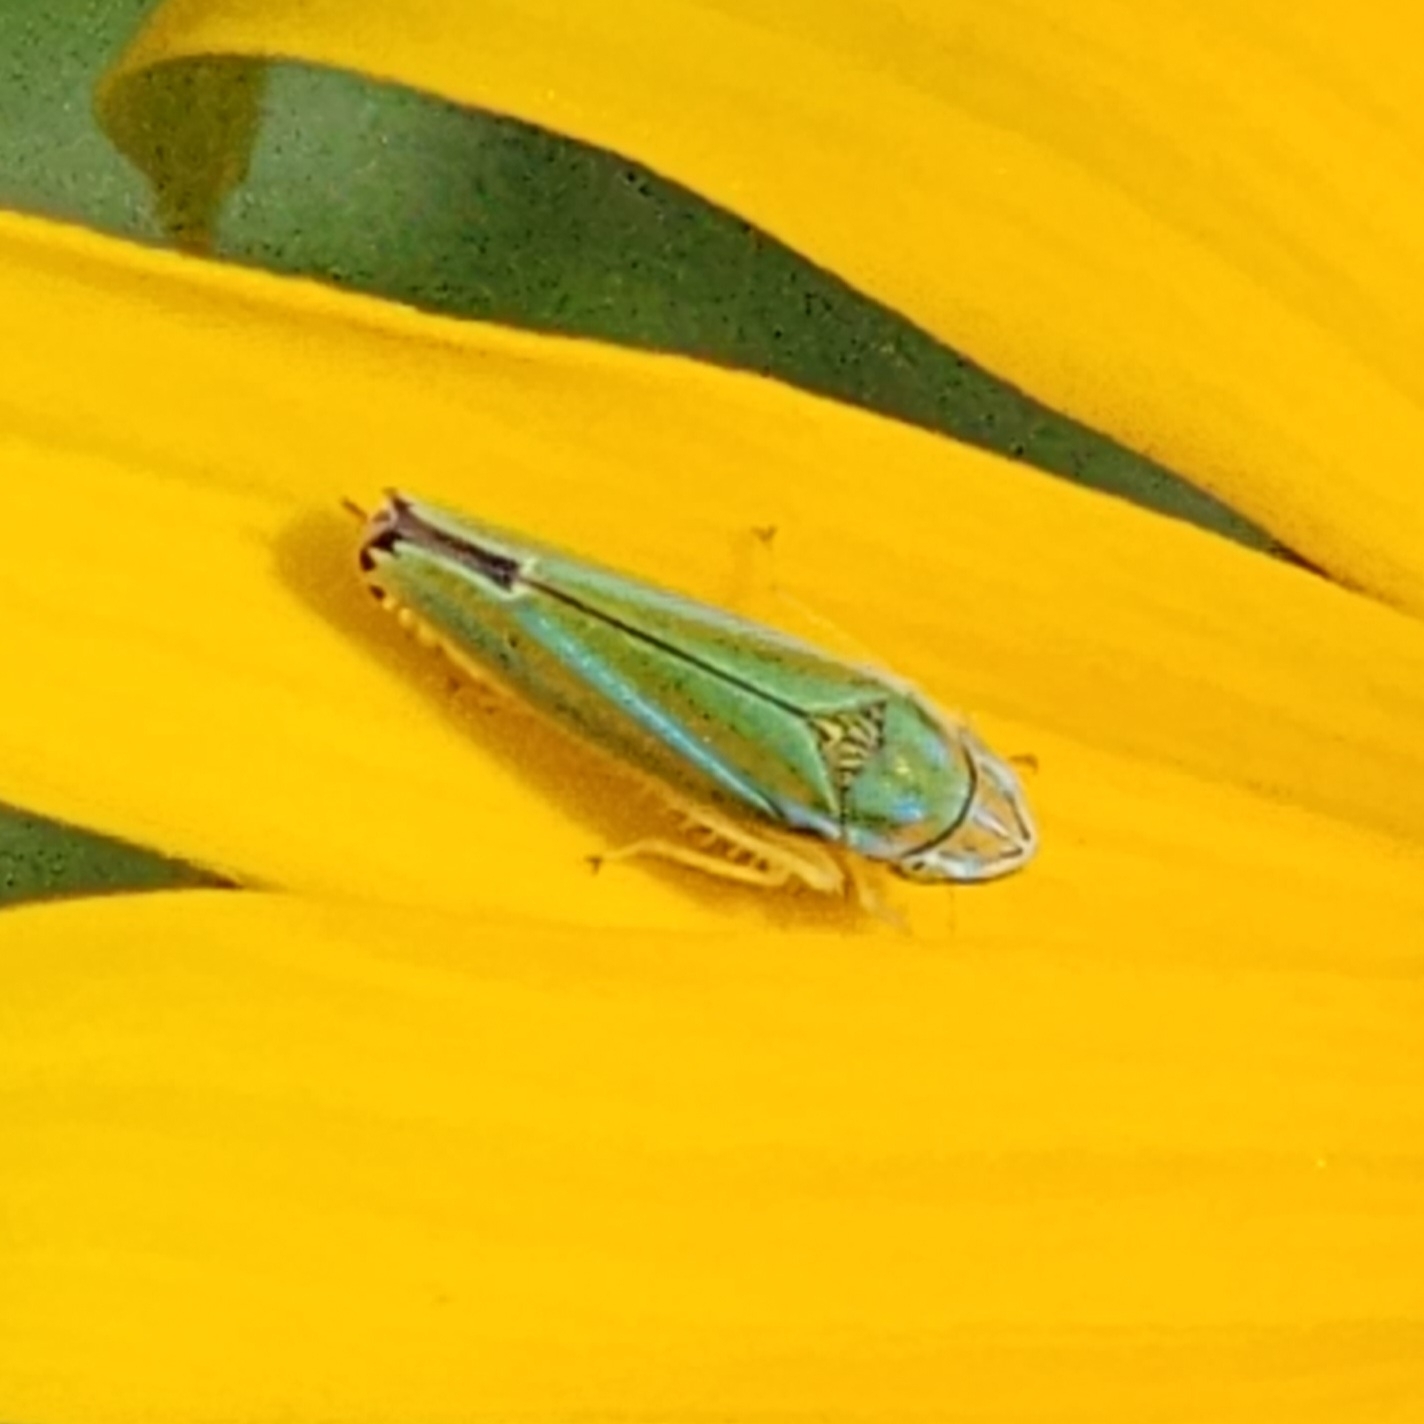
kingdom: Animalia
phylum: Arthropoda
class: Insecta
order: Hemiptera
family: Cicadellidae
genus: Graphocephala
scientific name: Graphocephala versuta
